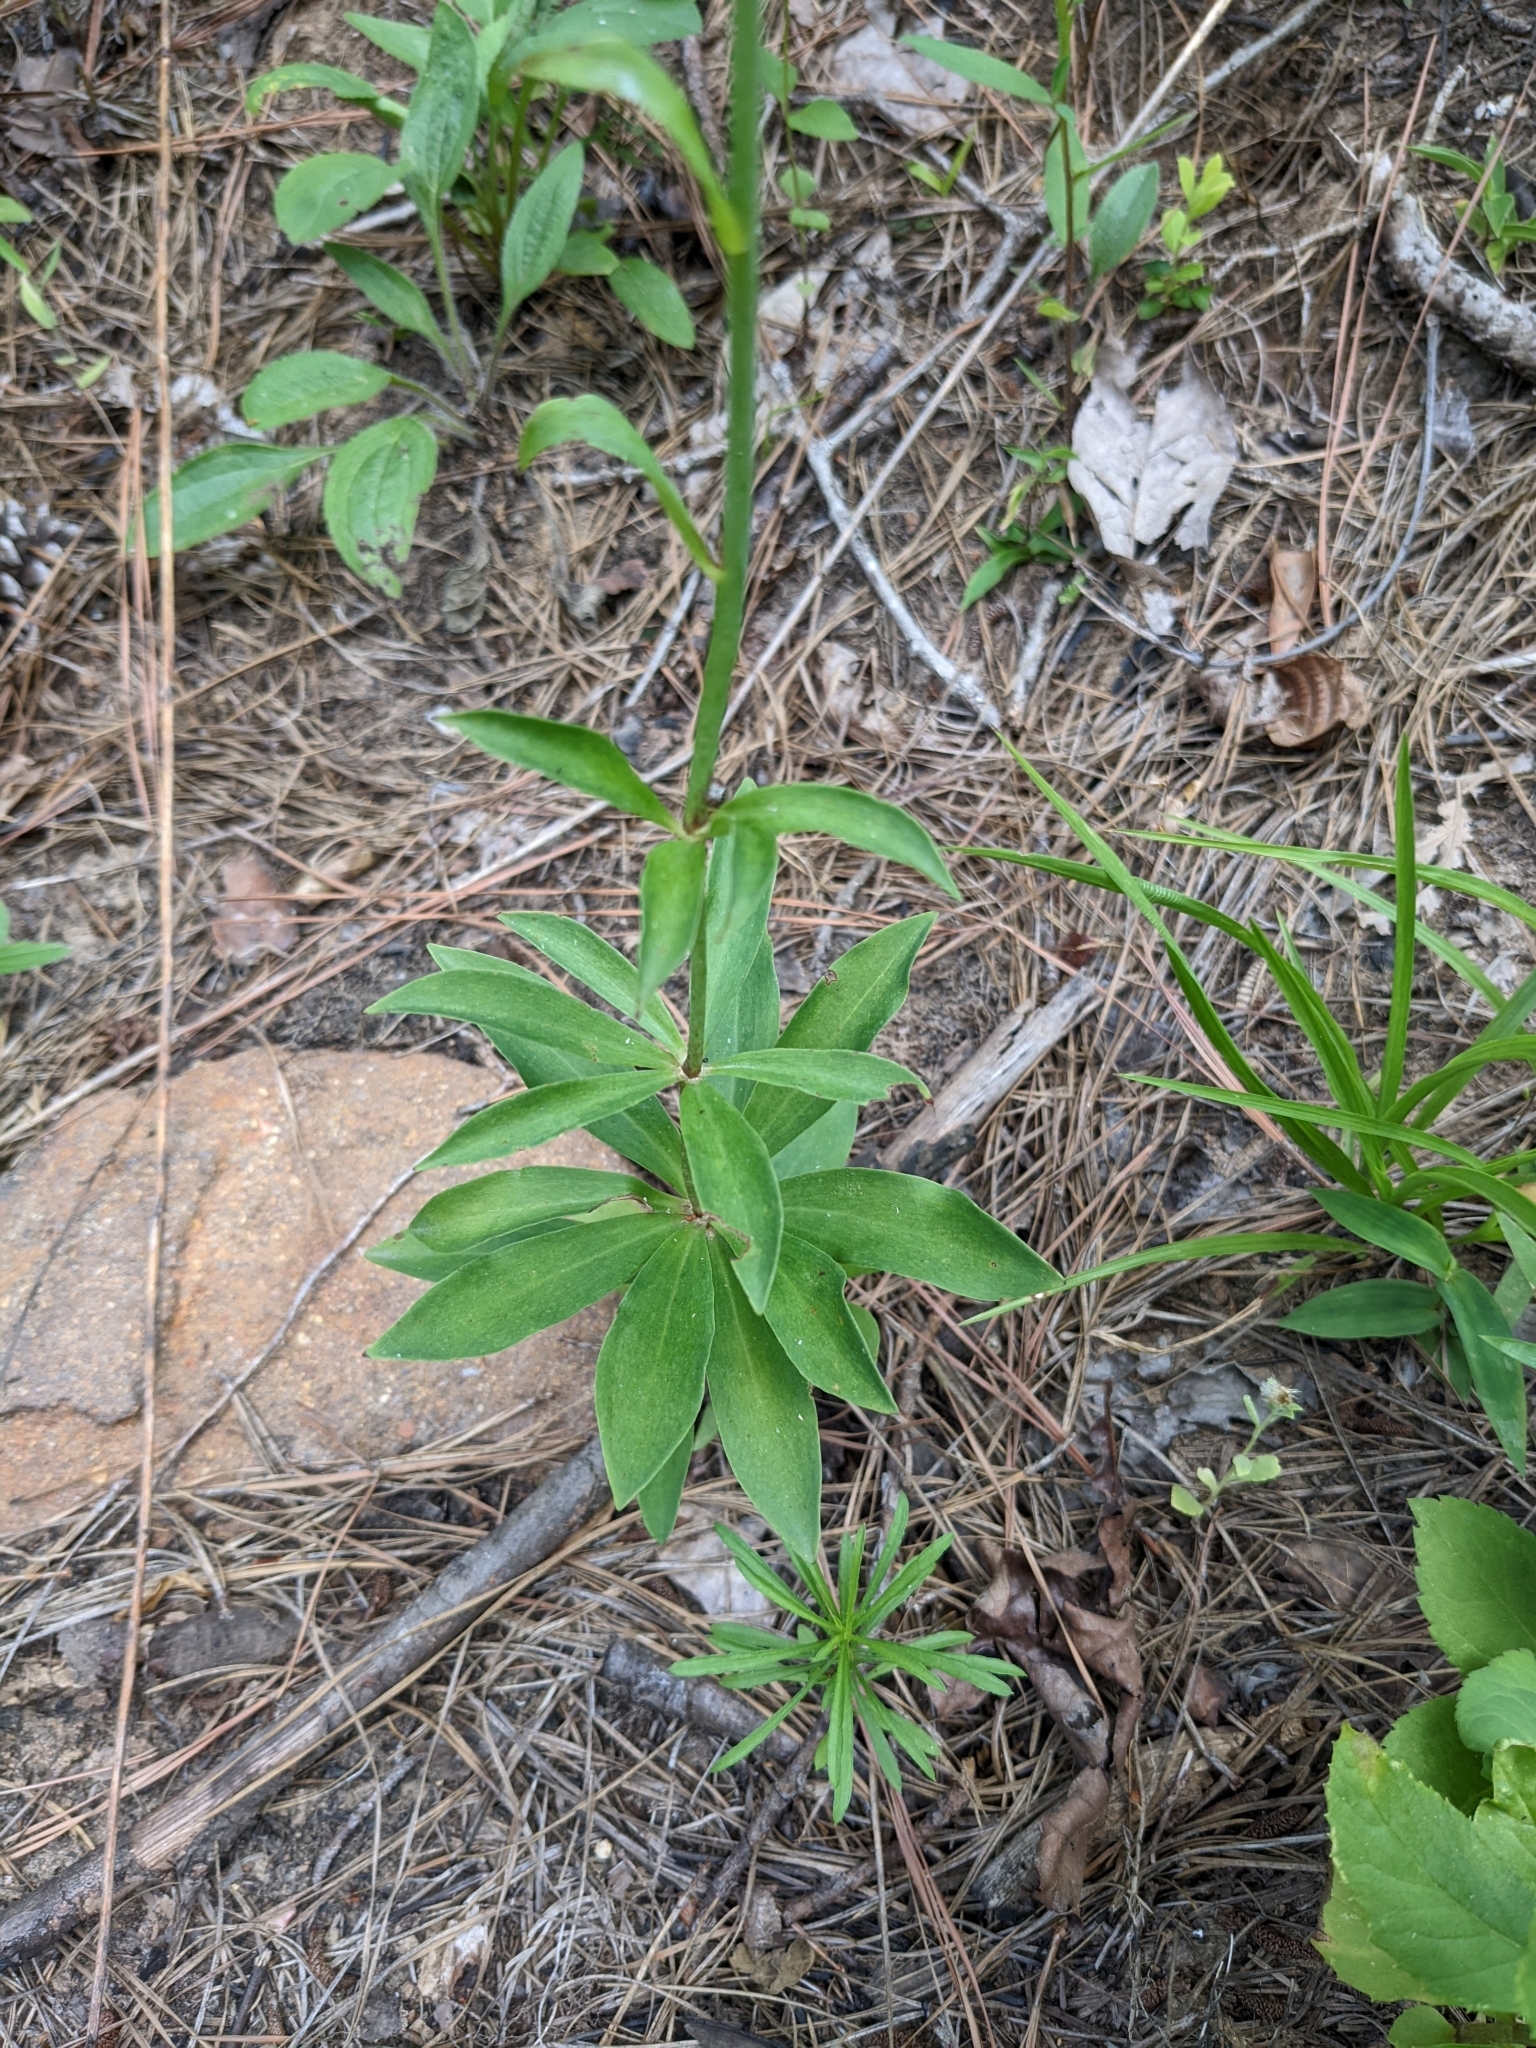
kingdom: Plantae
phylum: Tracheophyta
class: Liliopsida
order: Liliales
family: Liliaceae
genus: Lilium
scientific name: Lilium michauxii
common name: Carolina lily
